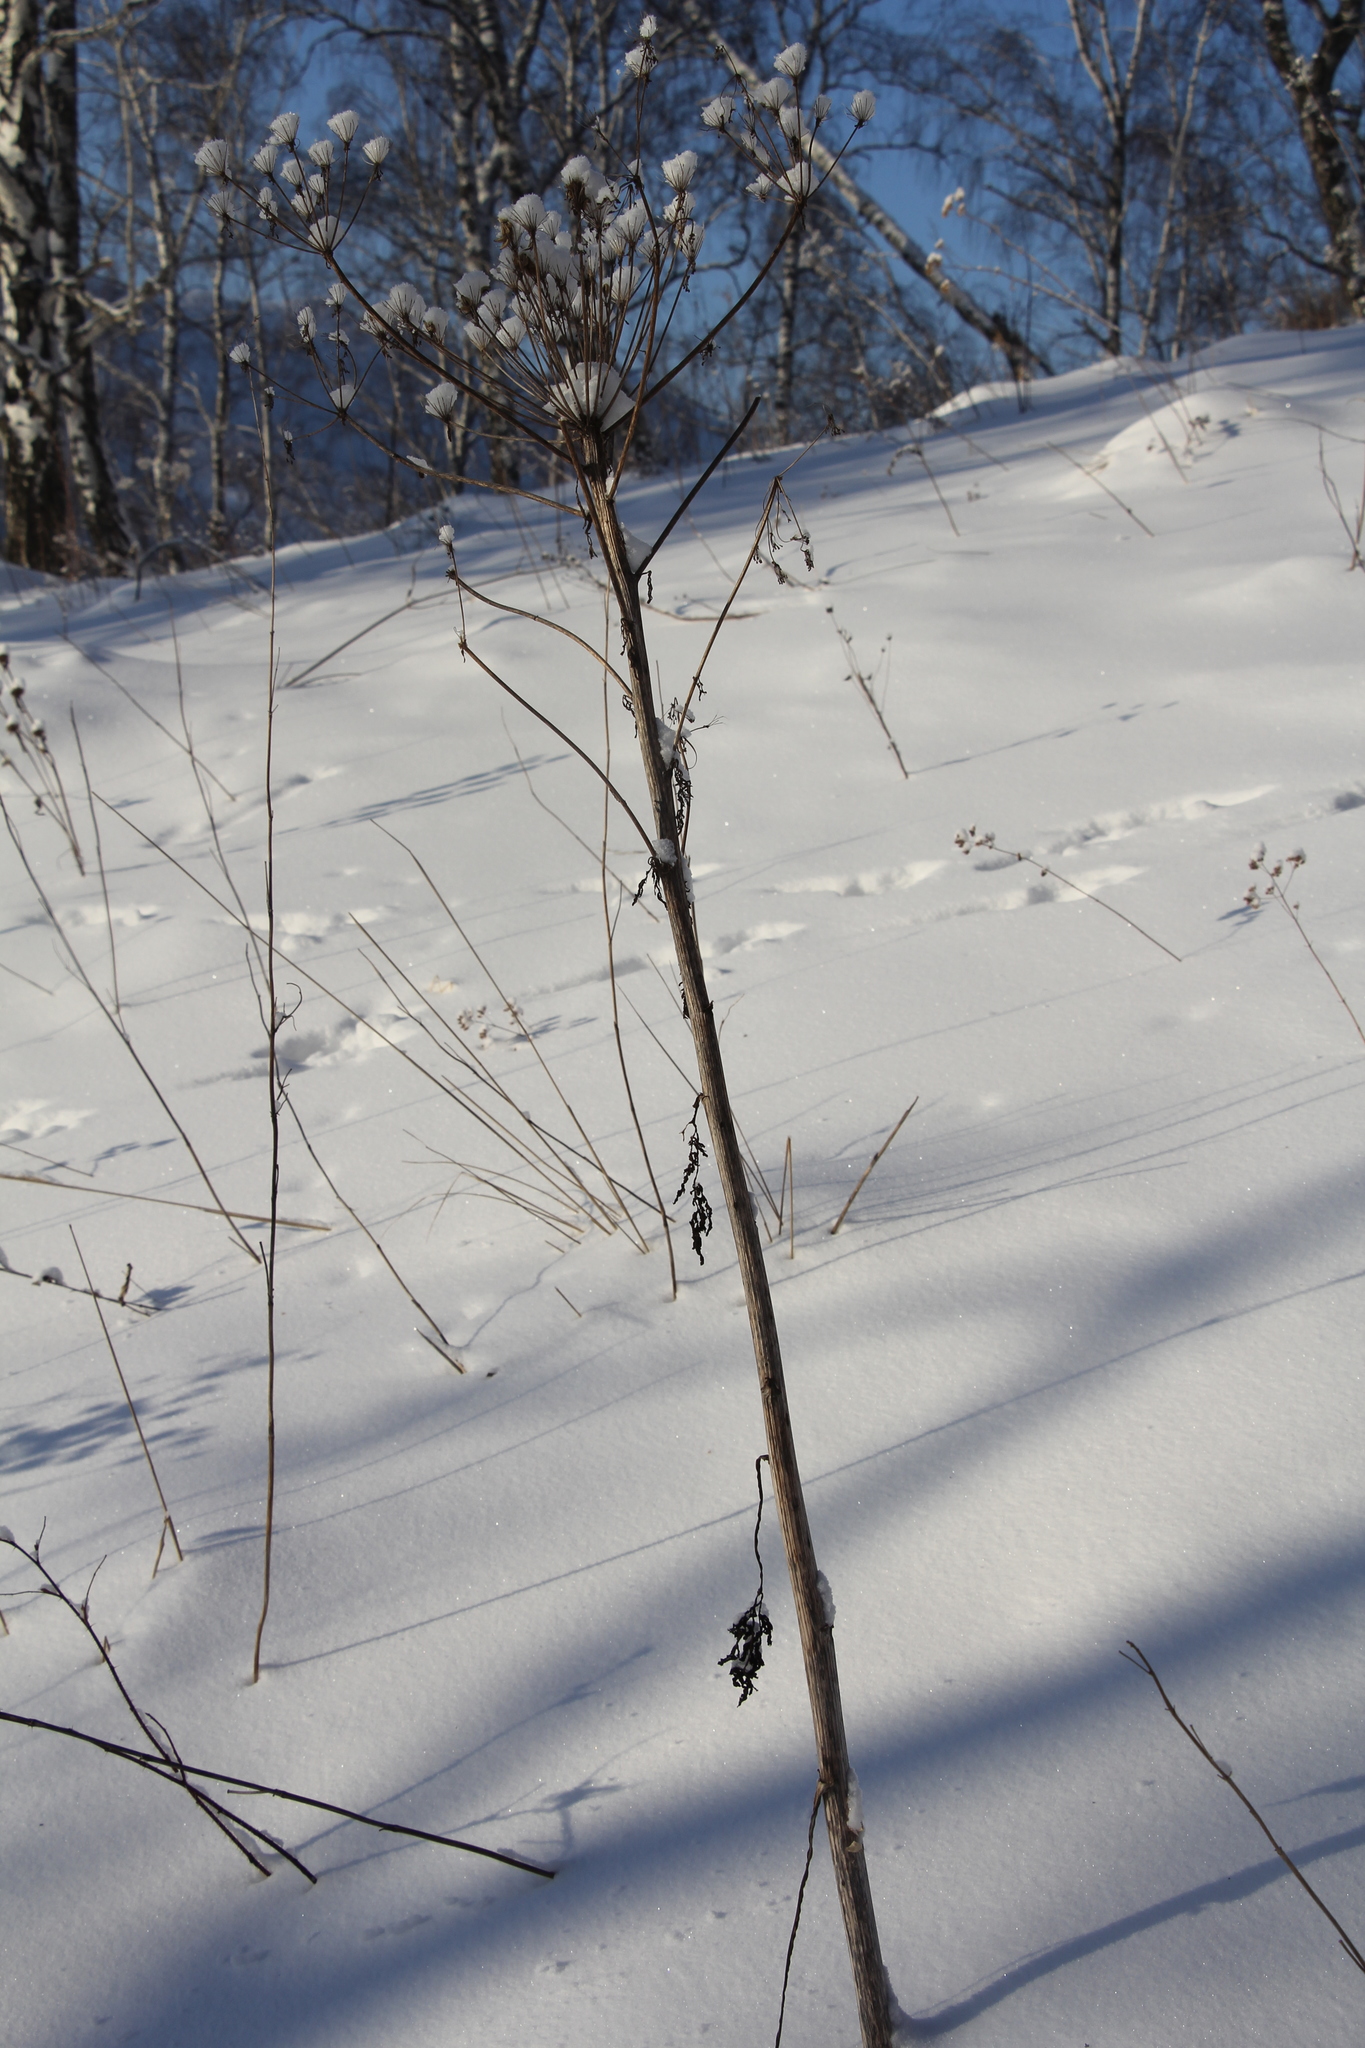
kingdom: Plantae
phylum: Tracheophyta
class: Magnoliopsida
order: Apiales
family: Apiaceae
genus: Pleurospermum
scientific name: Pleurospermum uralense
